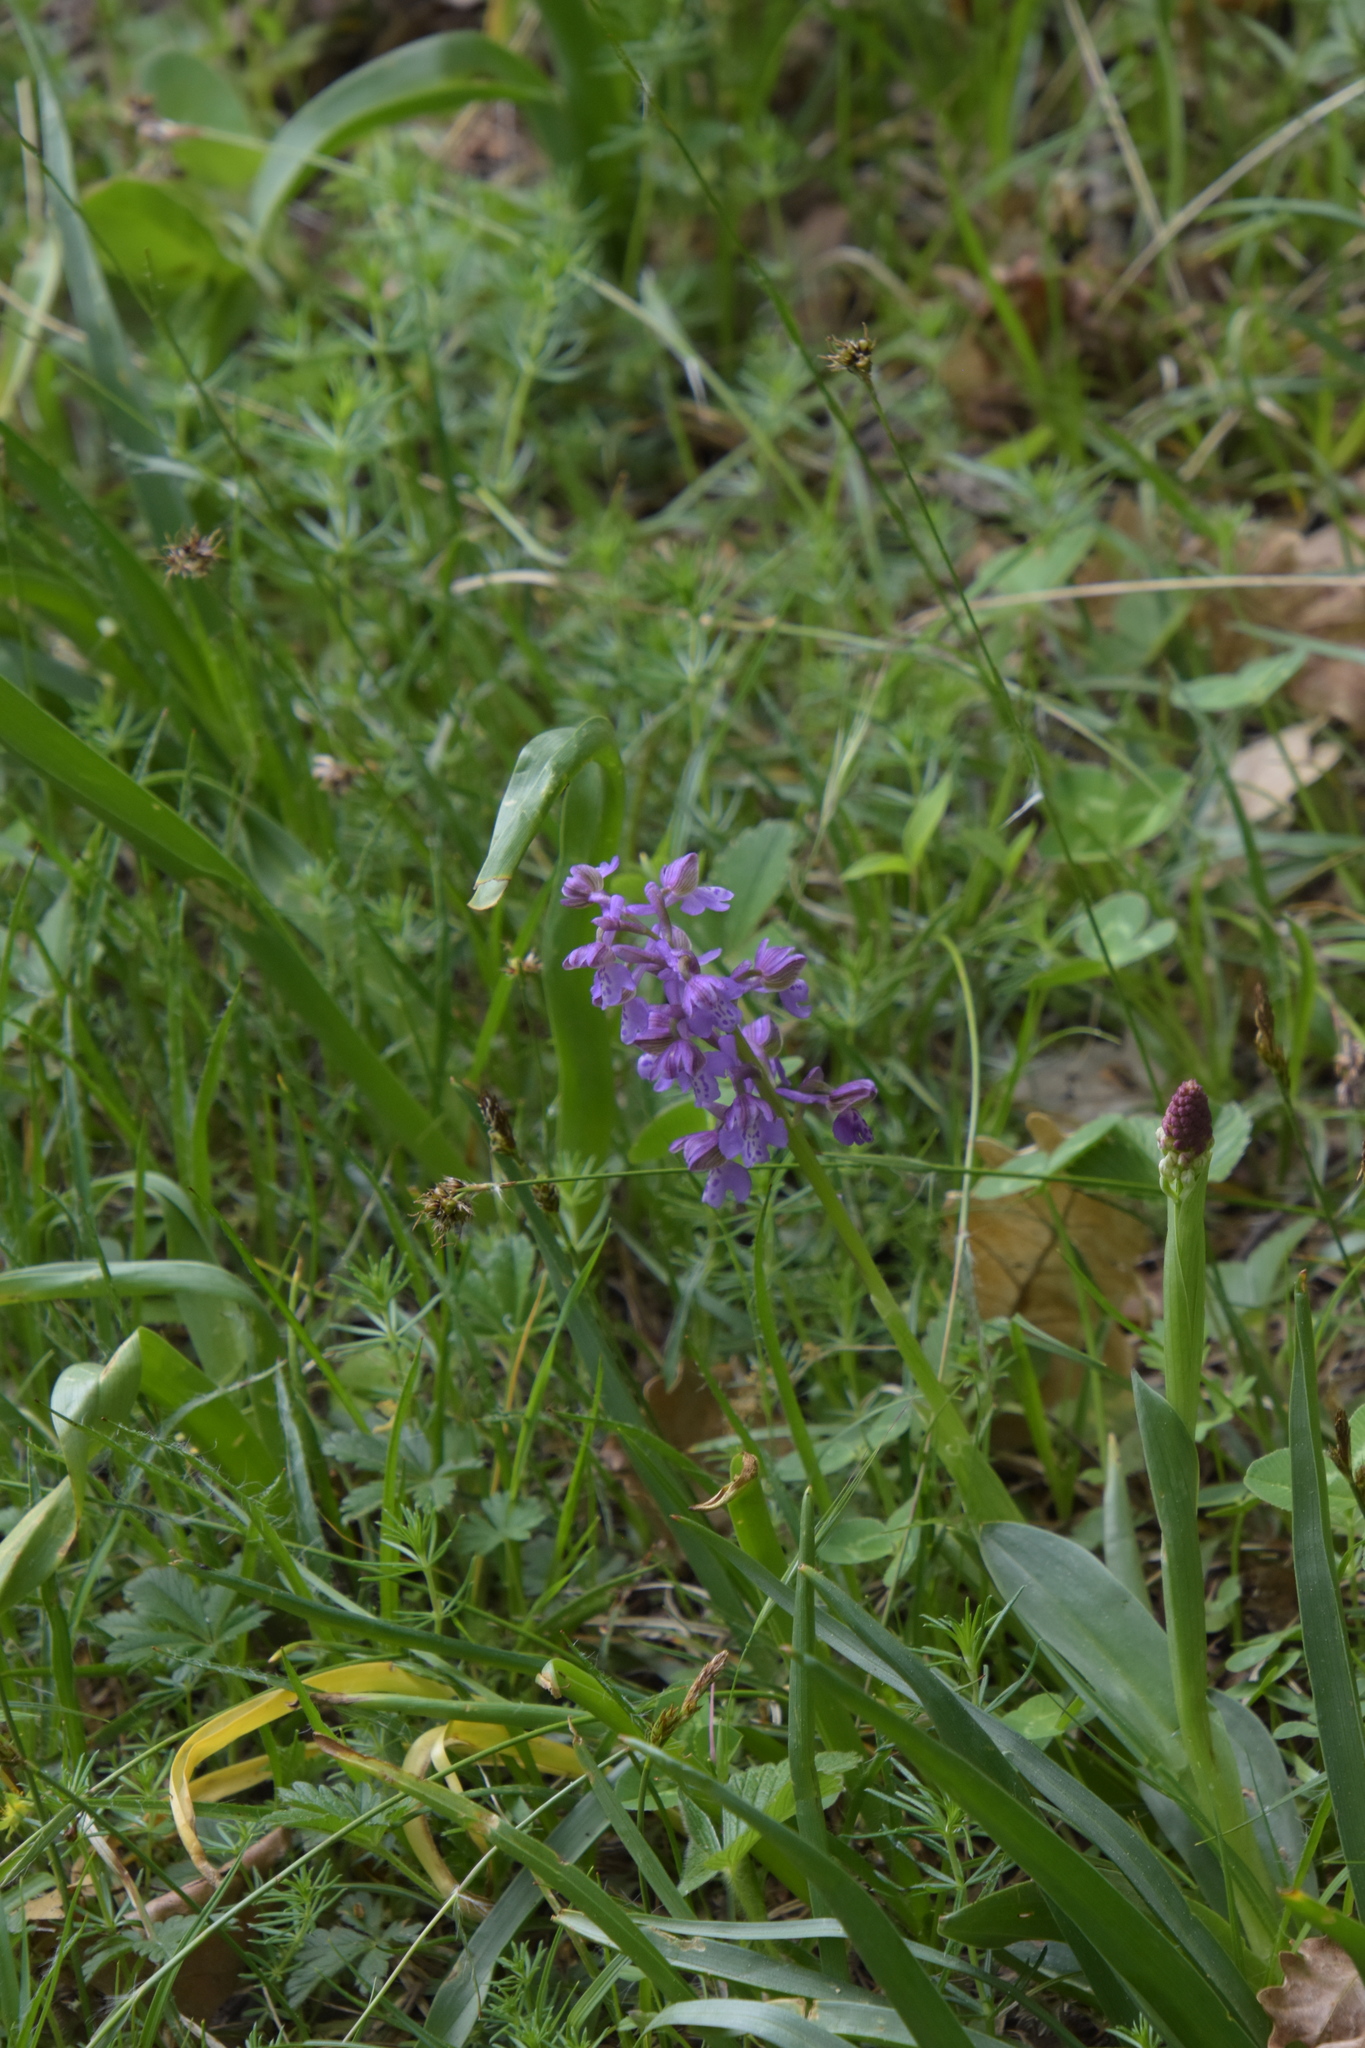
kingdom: Plantae
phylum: Tracheophyta
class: Liliopsida
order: Asparagales
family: Orchidaceae
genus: Anacamptis
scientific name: Anacamptis morio
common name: Green-winged orchid
